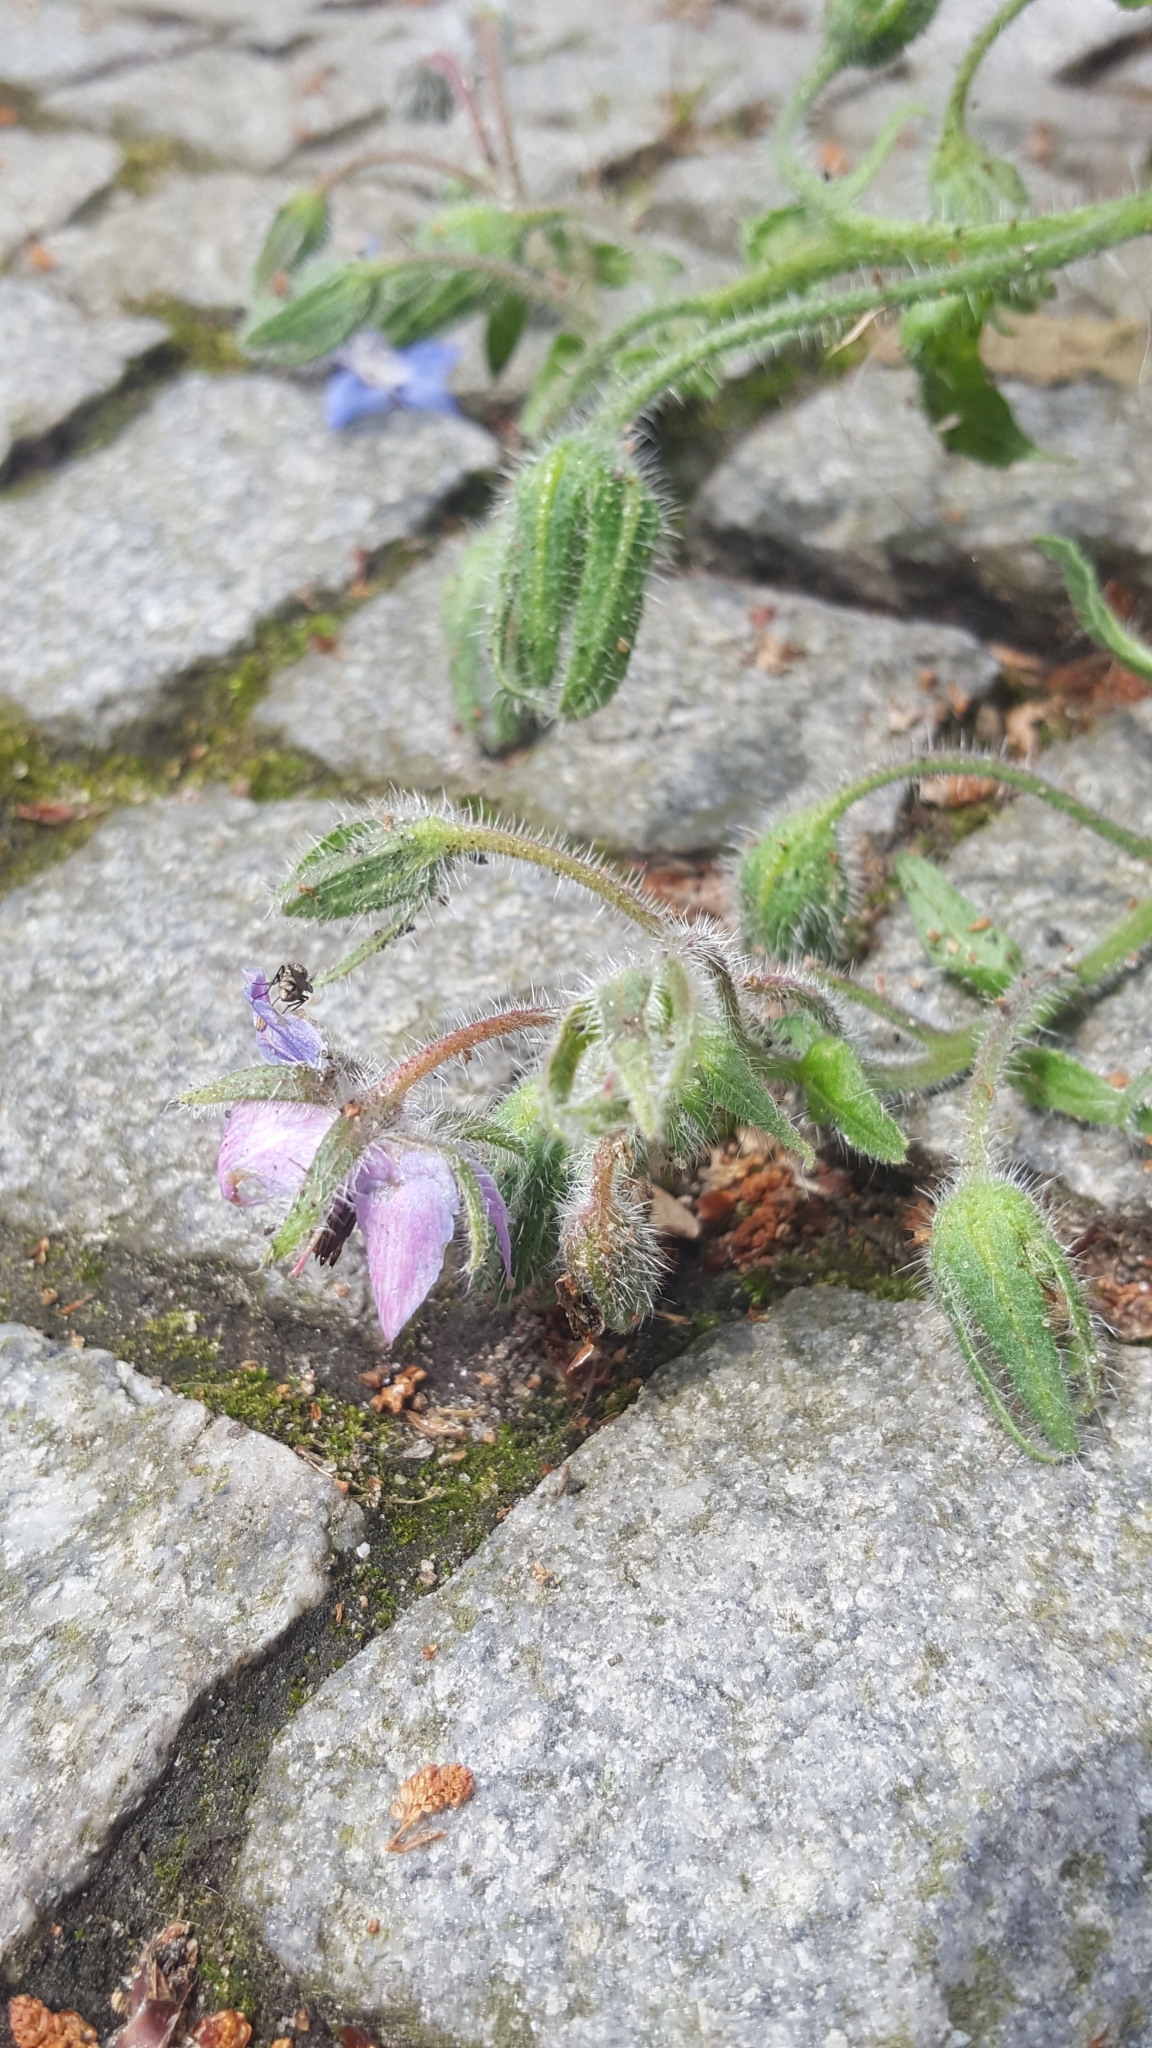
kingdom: Plantae
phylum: Tracheophyta
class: Magnoliopsida
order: Boraginales
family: Boraginaceae
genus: Borago
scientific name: Borago officinalis
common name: Borage
